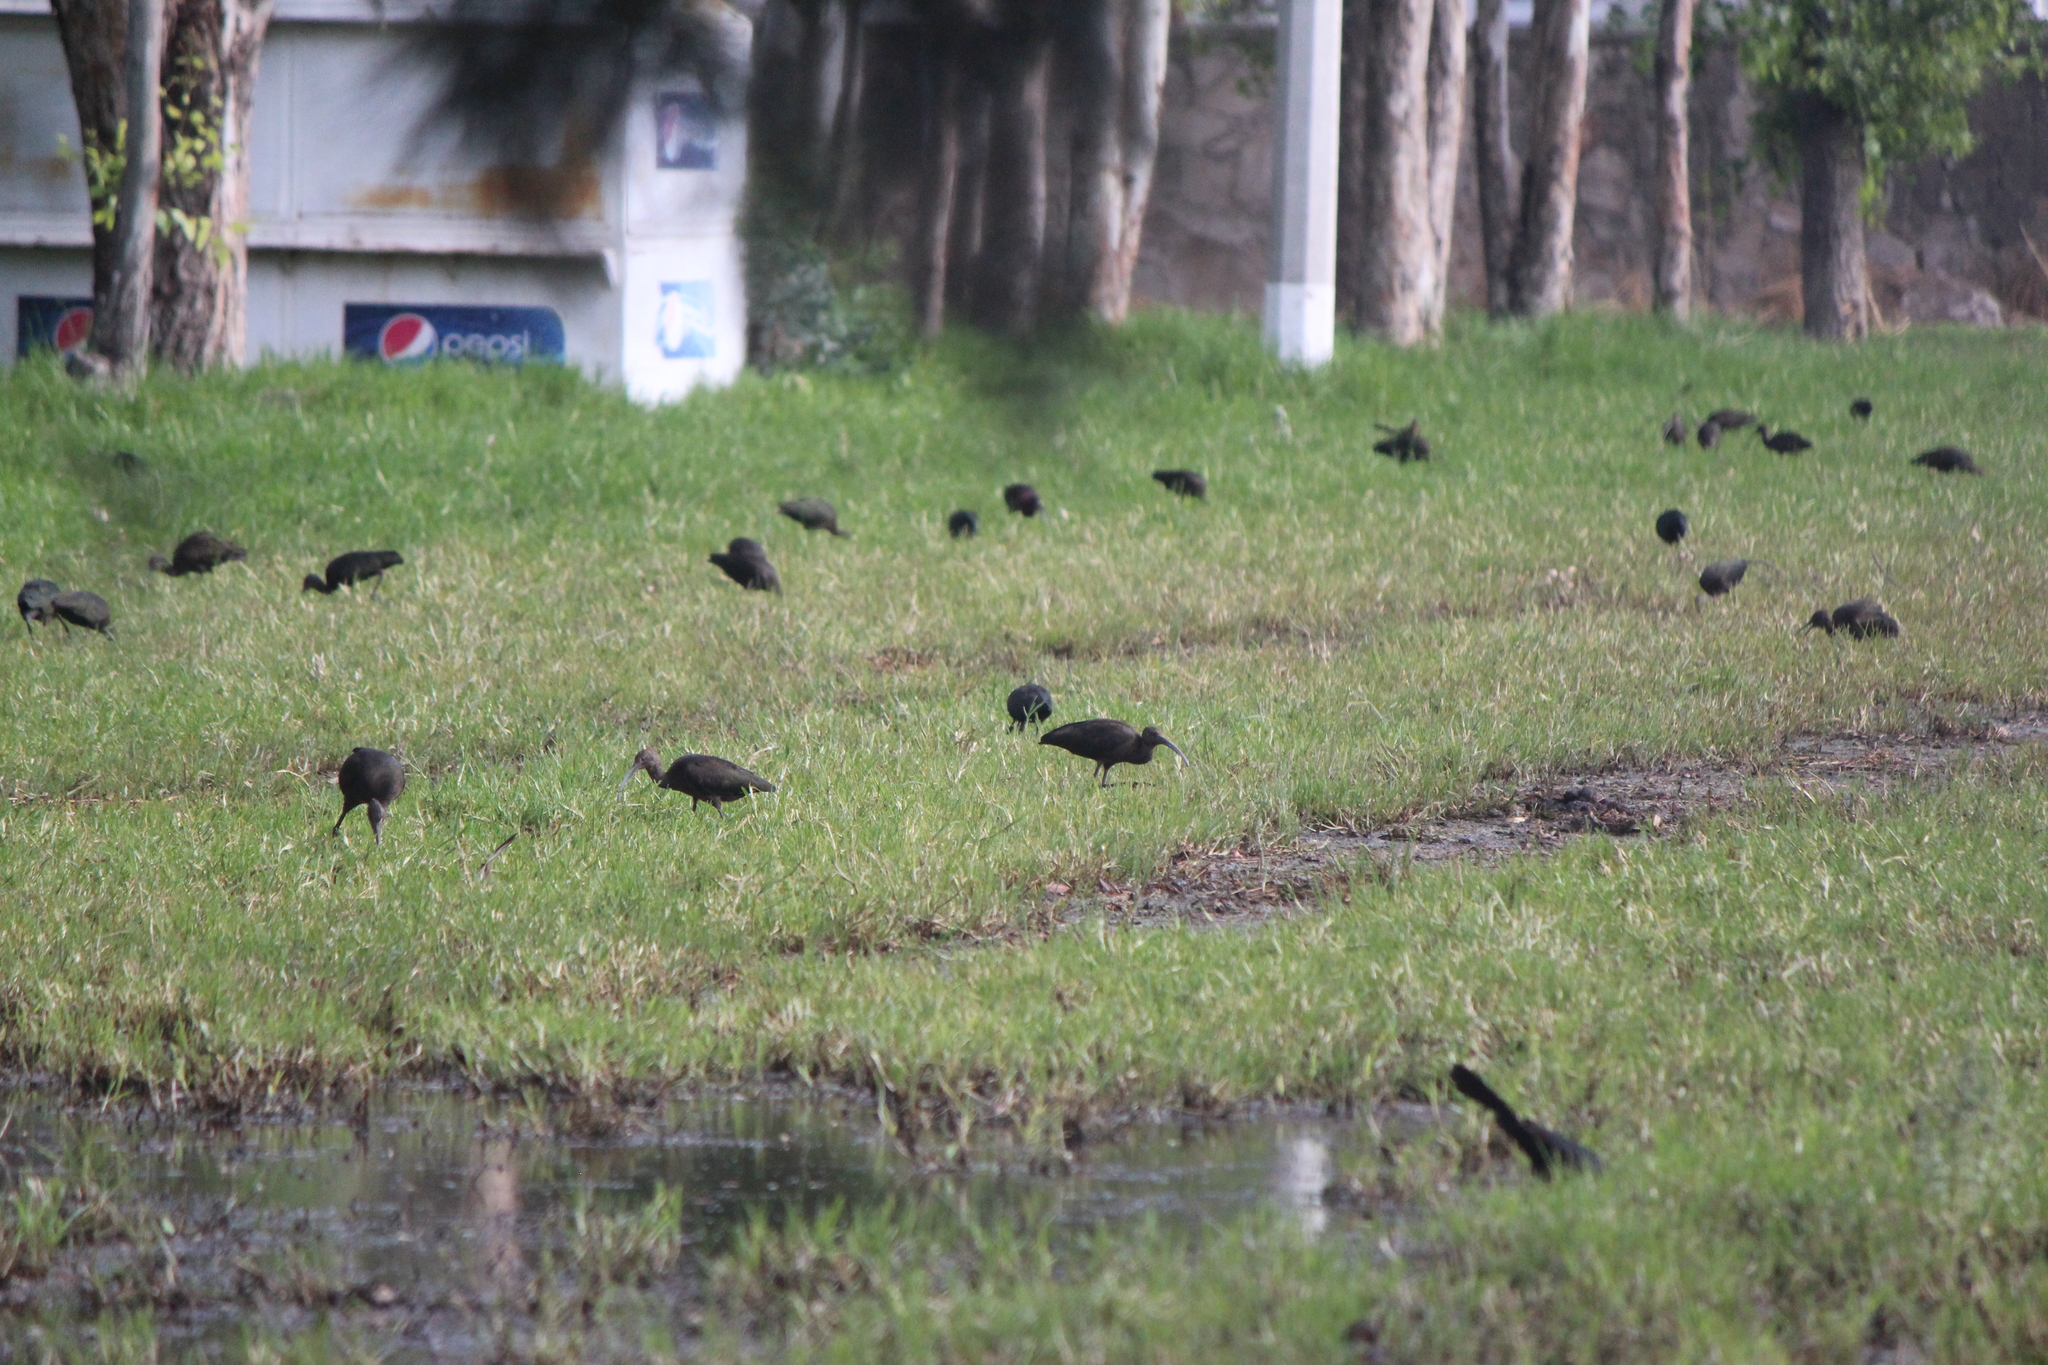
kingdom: Animalia
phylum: Chordata
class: Aves
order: Pelecaniformes
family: Threskiornithidae
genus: Plegadis
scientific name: Plegadis chihi
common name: White-faced ibis
